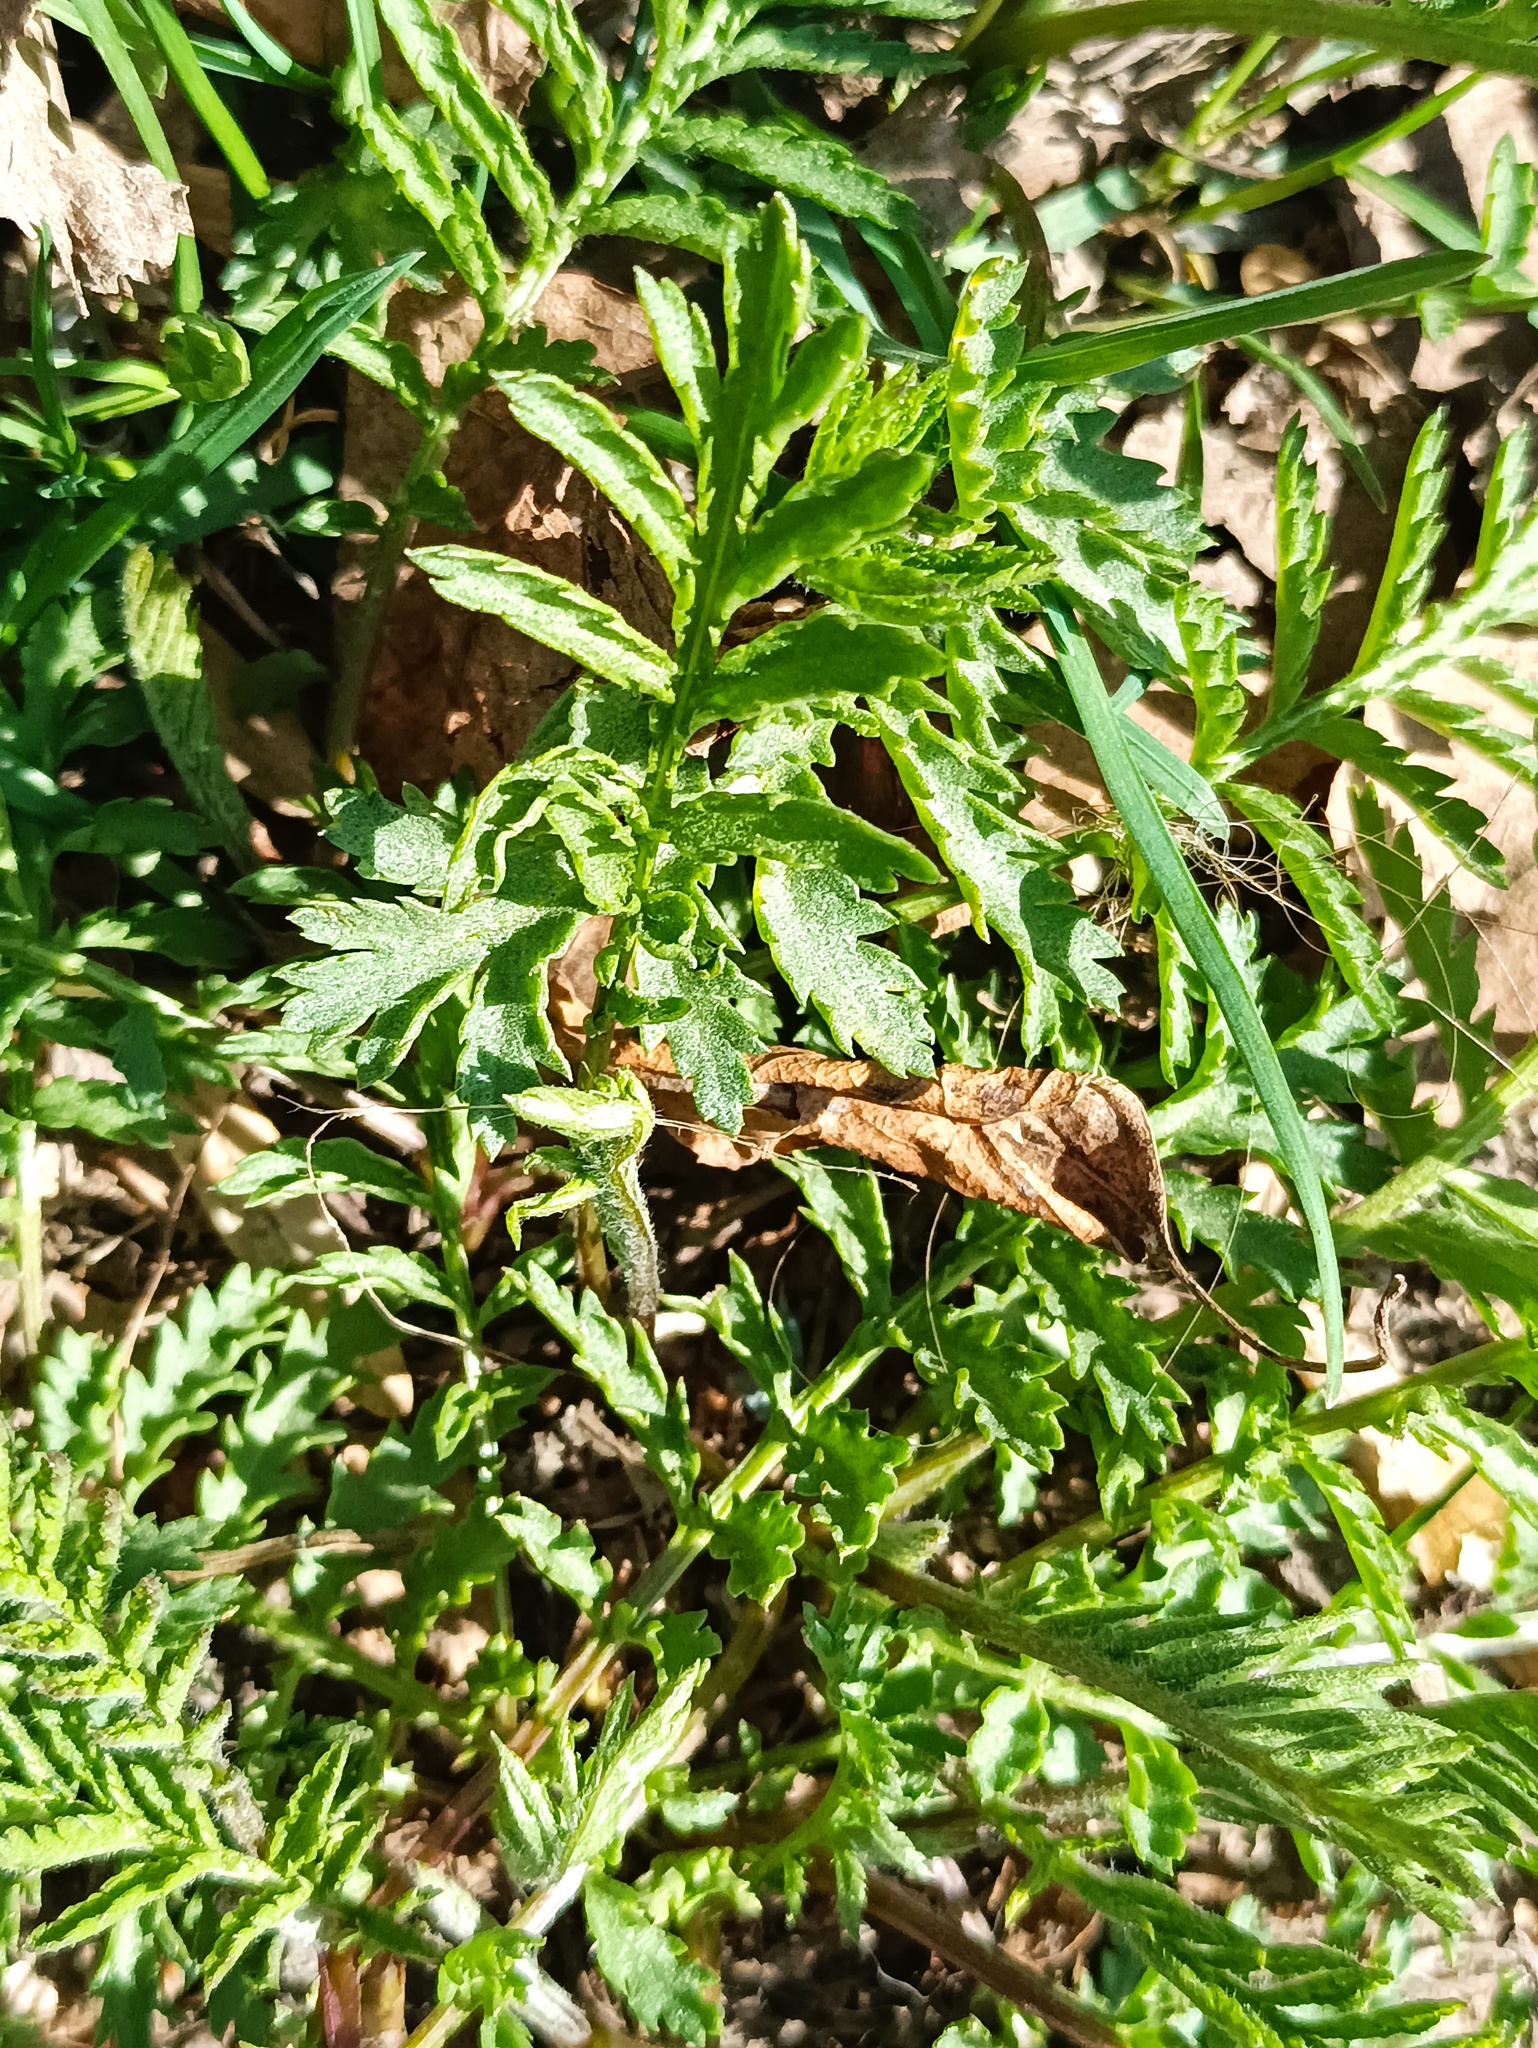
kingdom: Plantae
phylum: Tracheophyta
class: Magnoliopsida
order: Asterales
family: Asteraceae
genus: Tanacetum
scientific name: Tanacetum vulgare
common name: Common tansy
